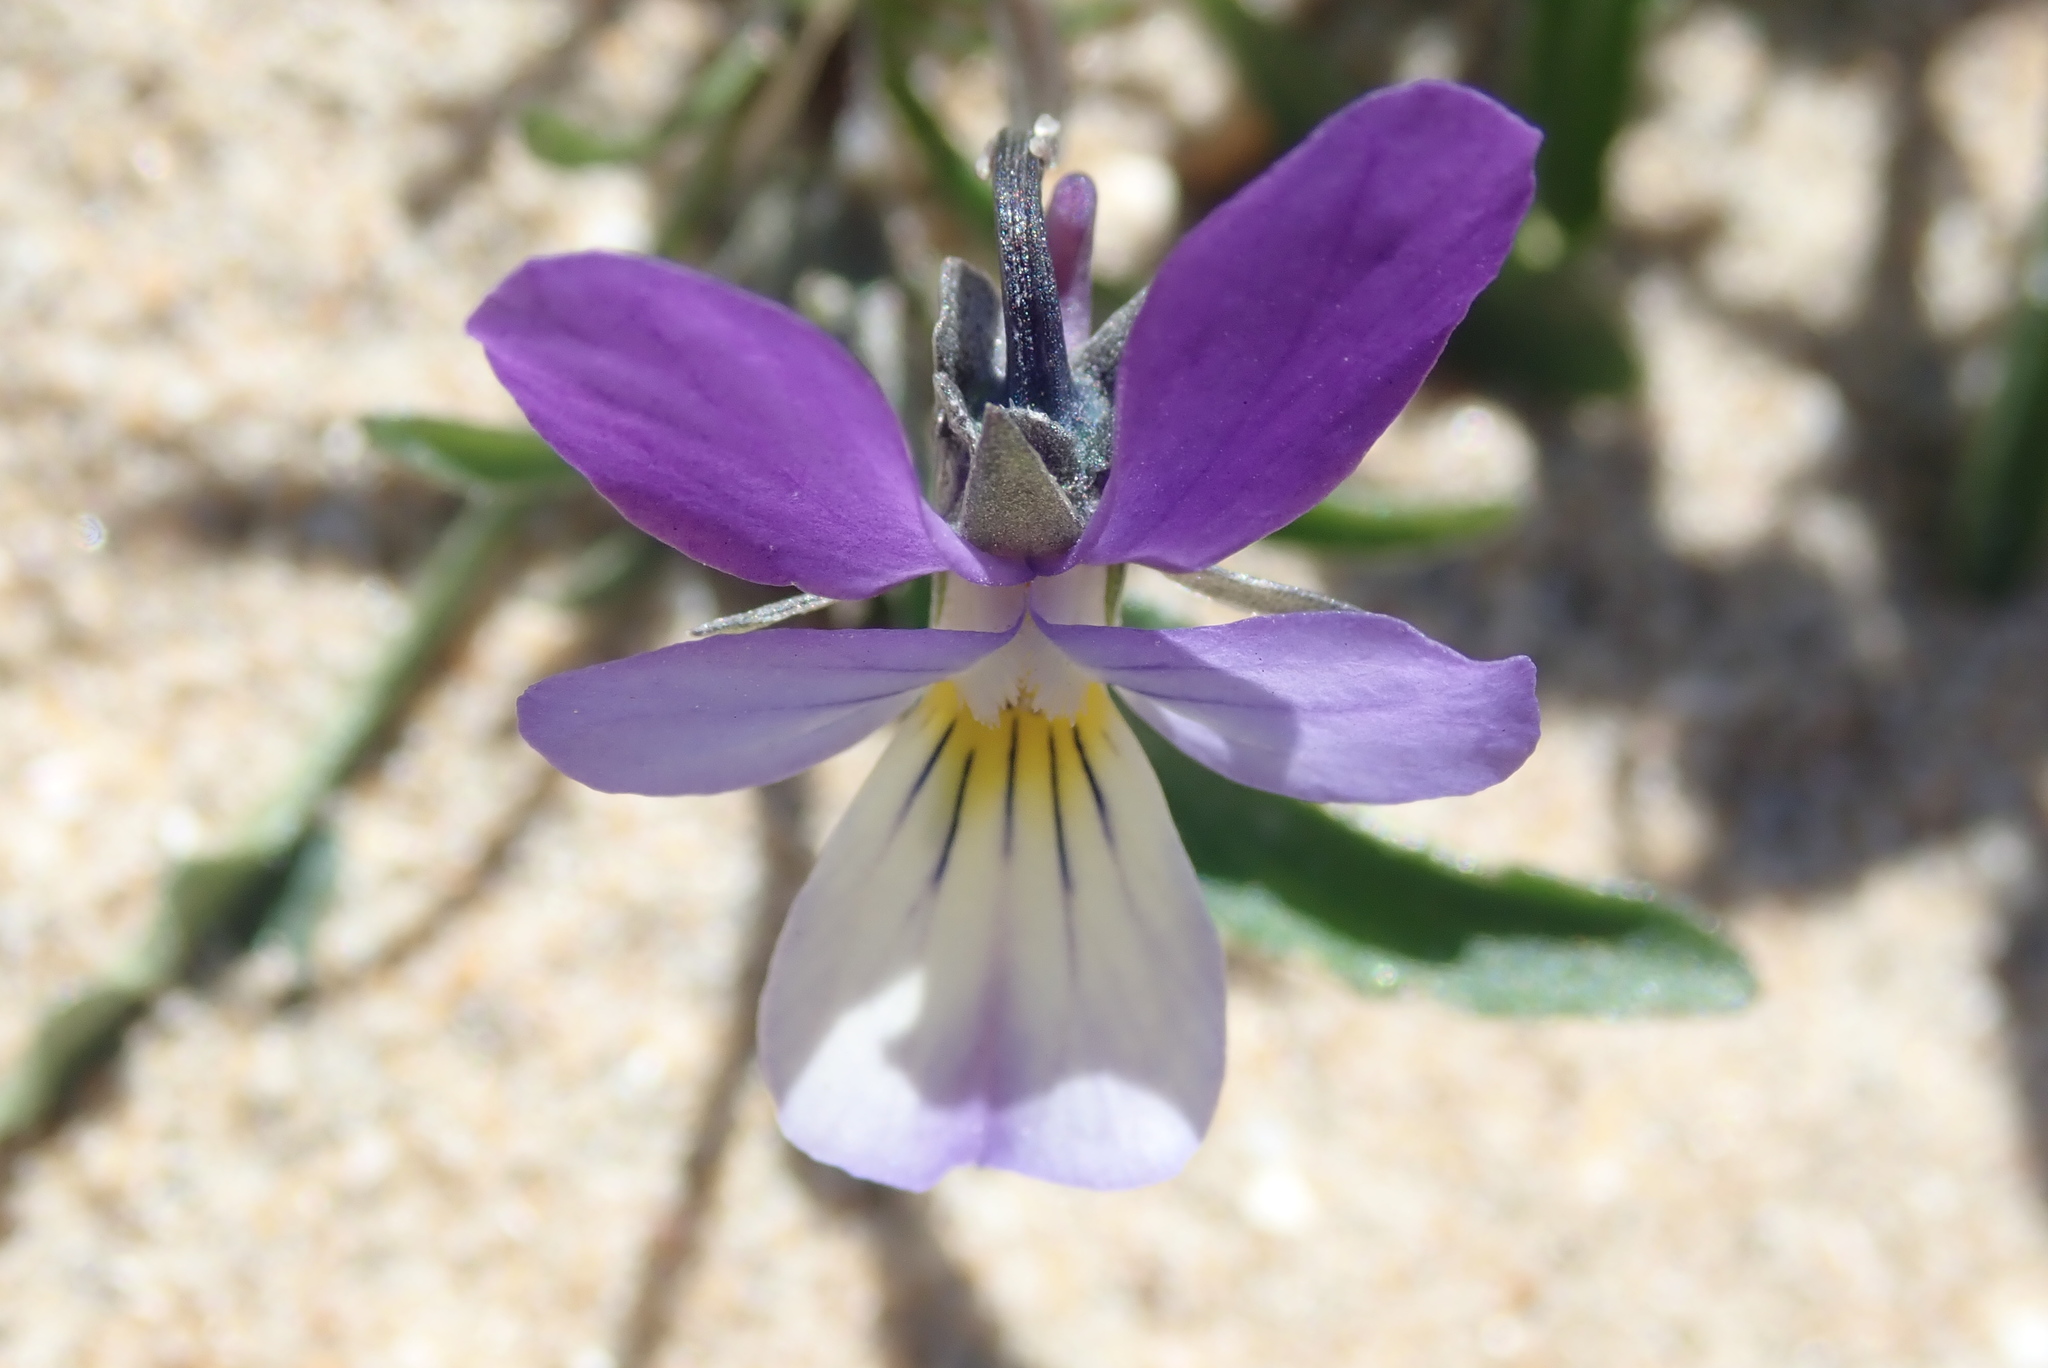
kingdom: Plantae
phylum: Tracheophyta
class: Magnoliopsida
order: Malpighiales
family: Violaceae
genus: Viola
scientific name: Viola tricolor
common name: Pansy
